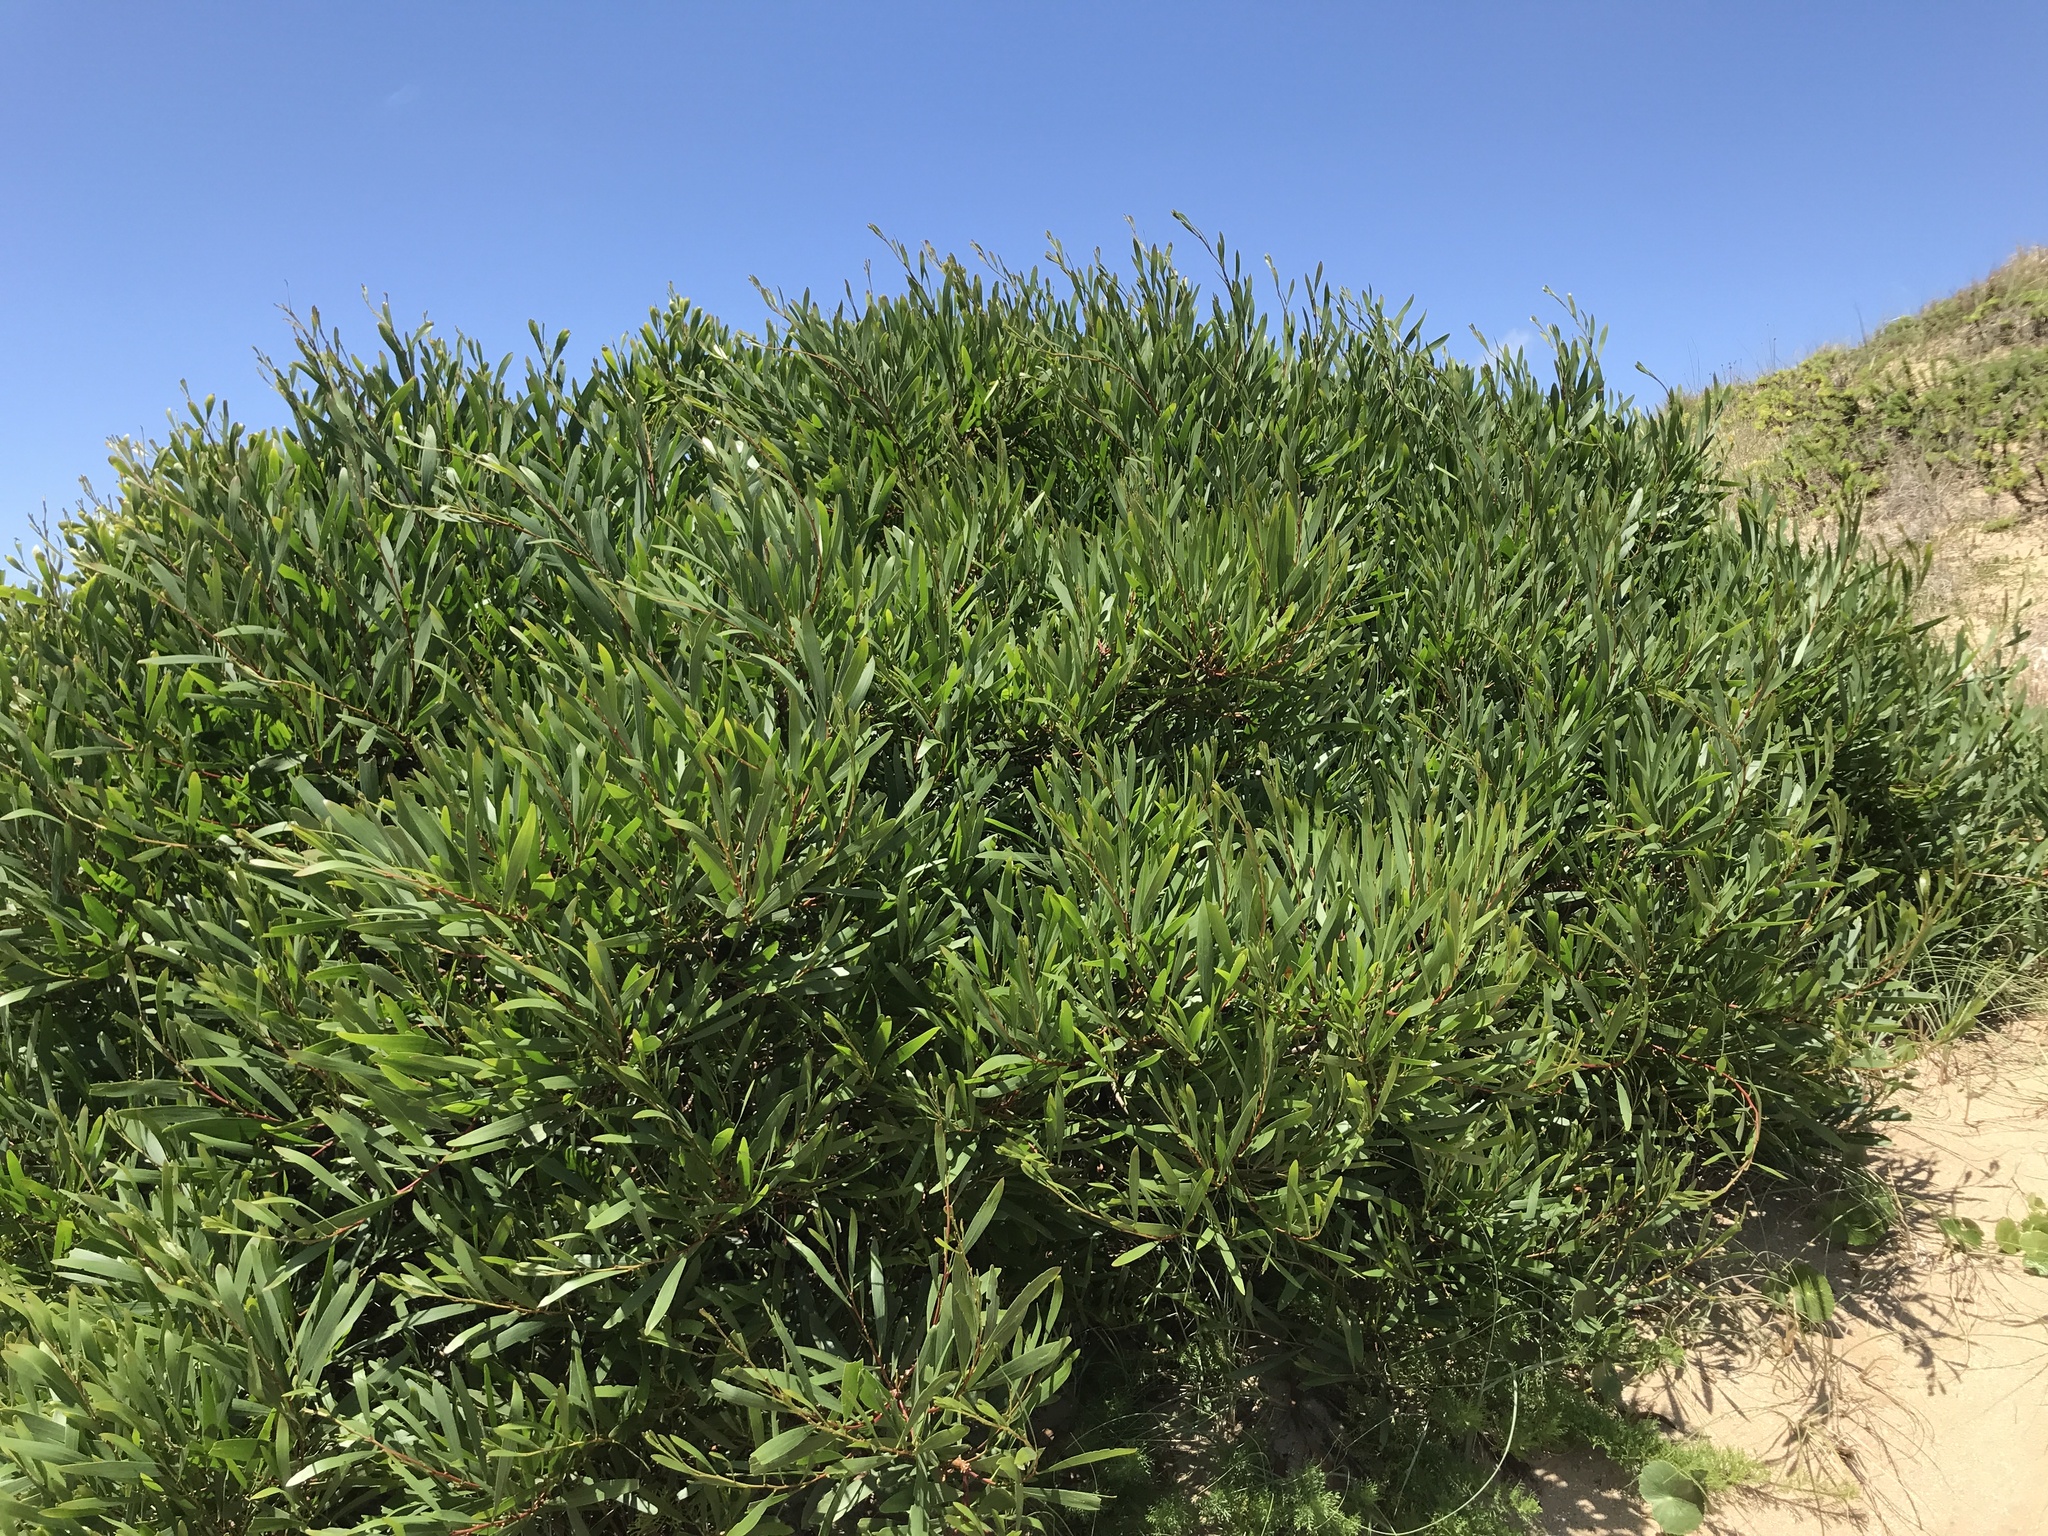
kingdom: Plantae
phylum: Tracheophyta
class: Magnoliopsida
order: Fabales
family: Fabaceae
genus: Acacia
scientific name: Acacia longifolia
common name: Sydney golden wattle
